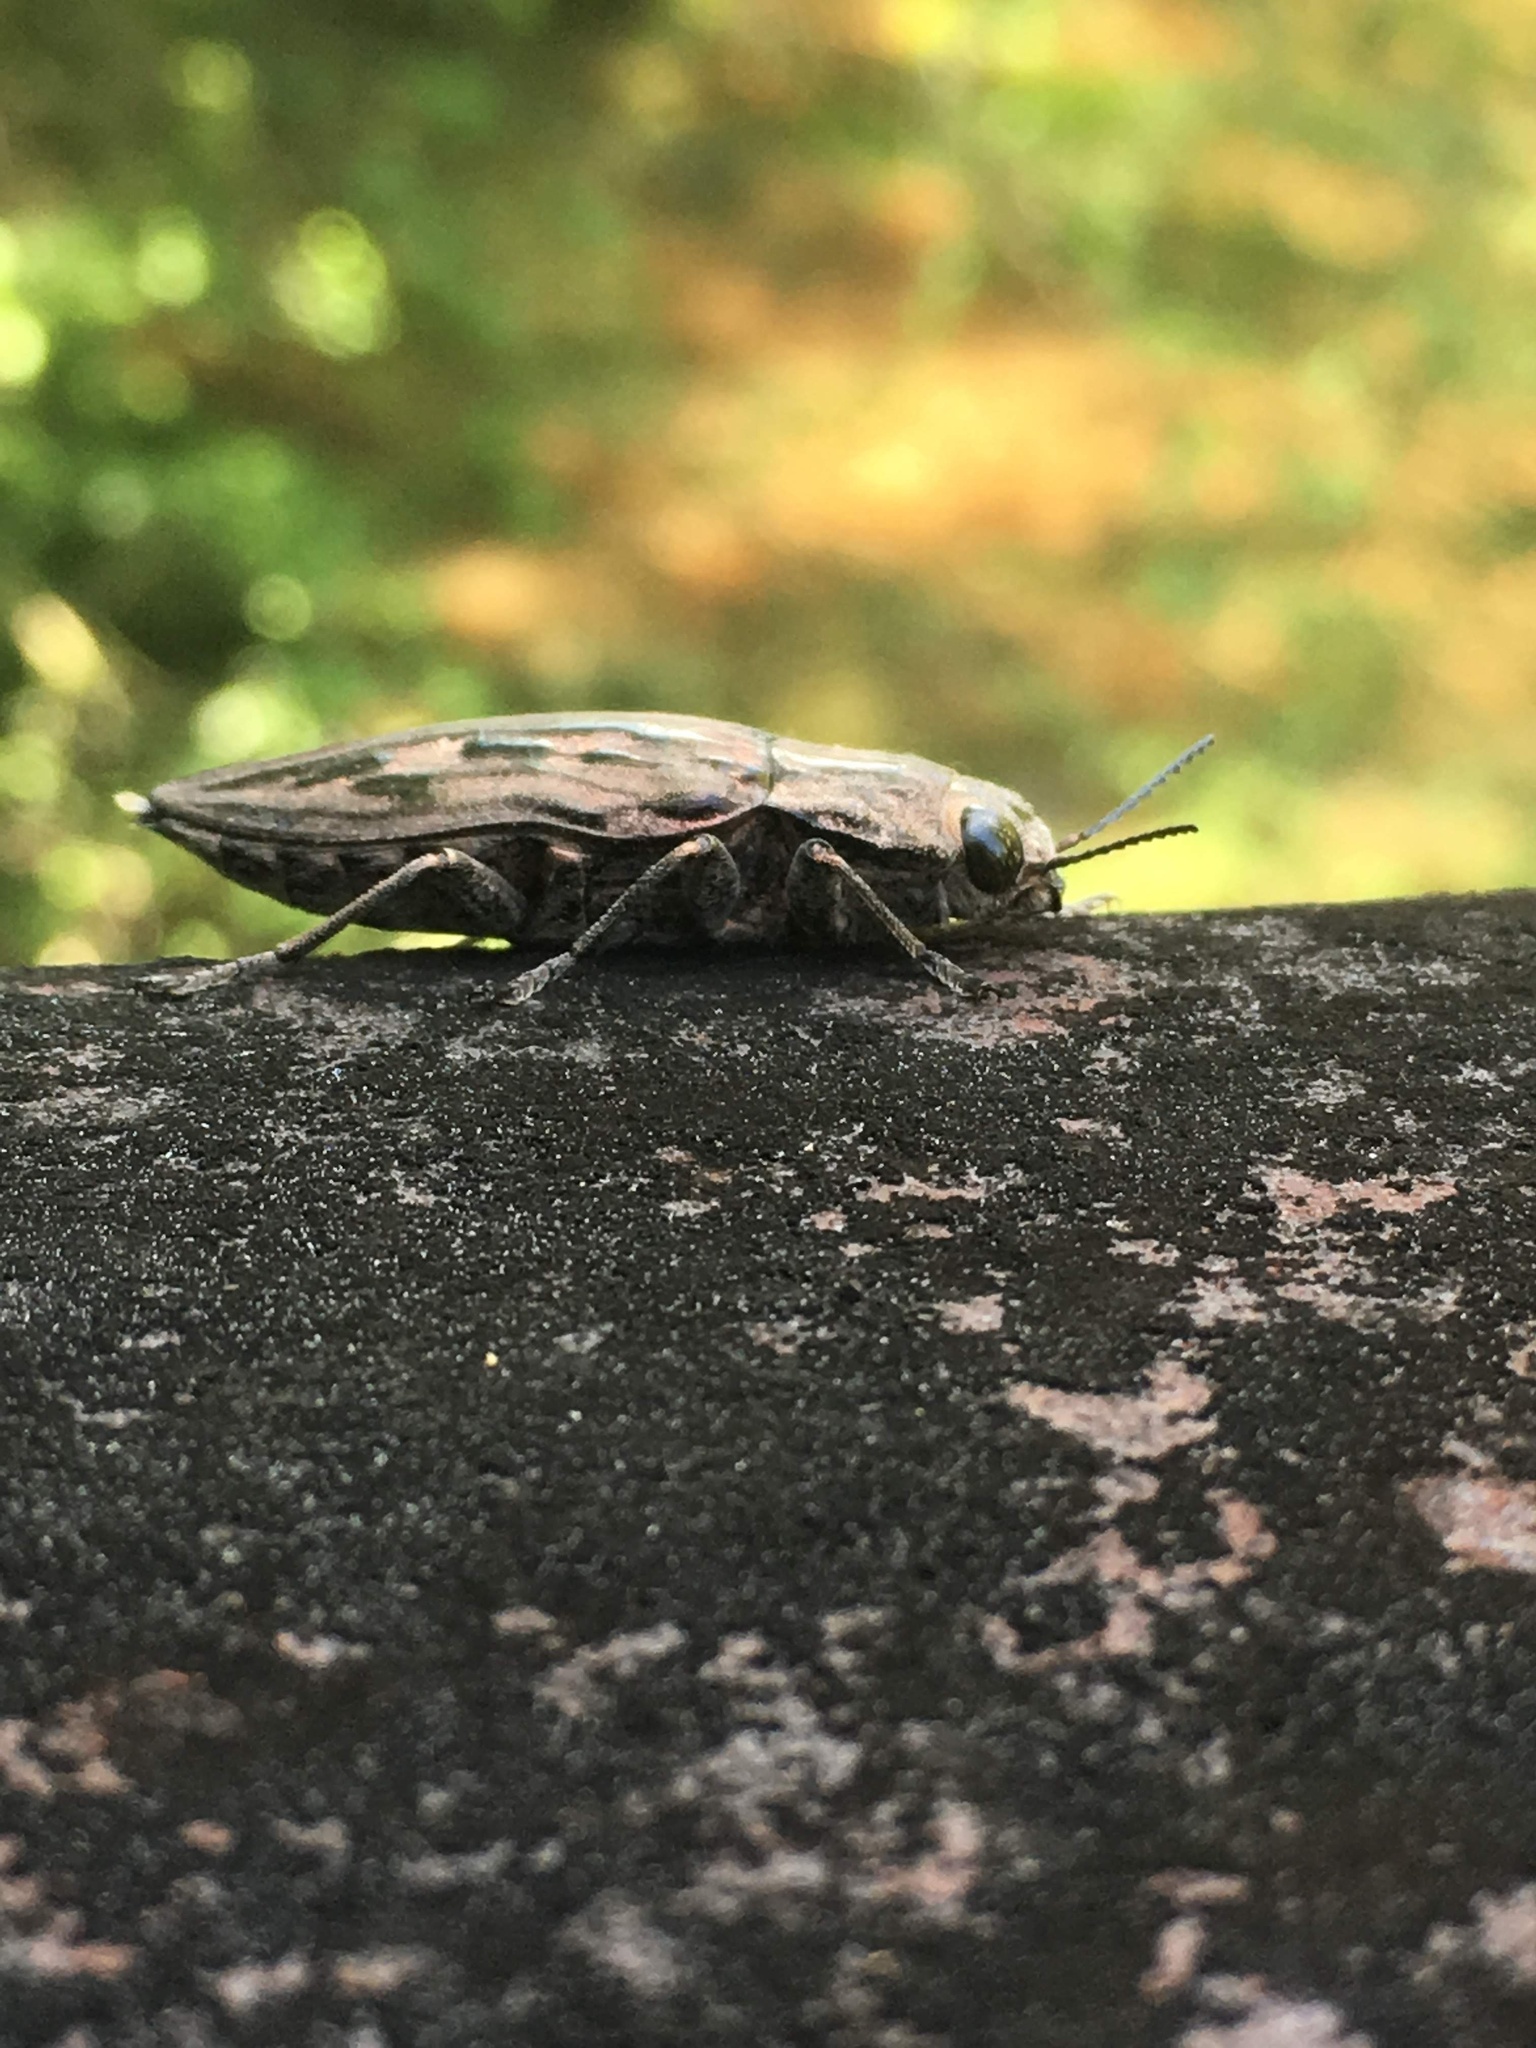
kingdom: Animalia
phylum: Arthropoda
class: Insecta
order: Coleoptera
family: Buprestidae
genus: Chalcophora
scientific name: Chalcophora virginiensis
